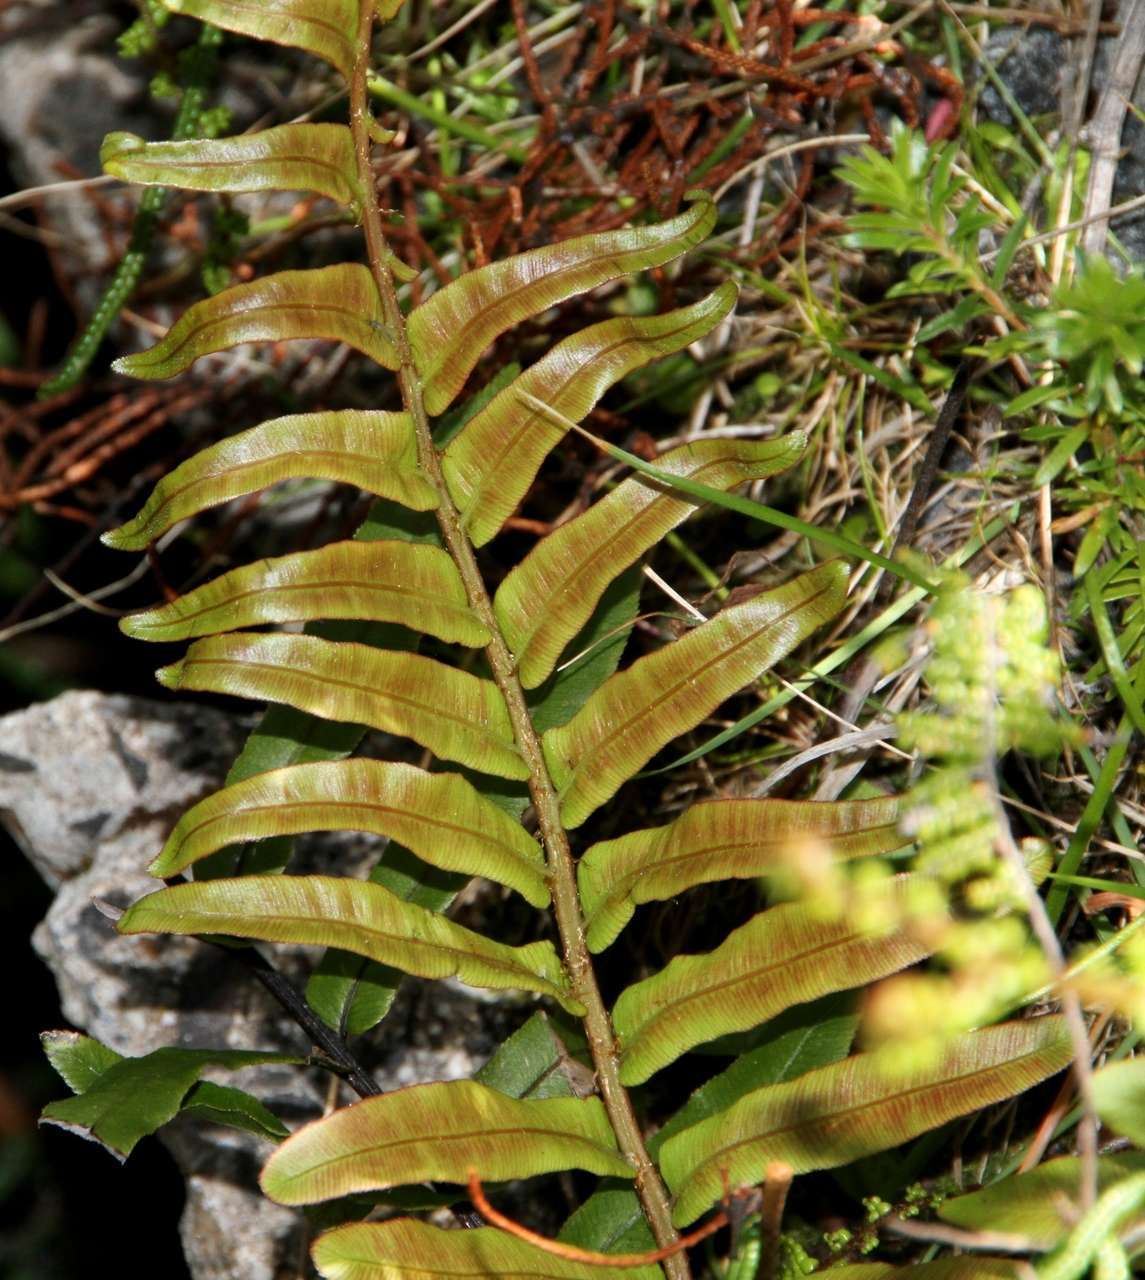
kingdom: Plantae
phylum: Tracheophyta
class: Polypodiopsida
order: Polypodiales
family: Blechnaceae
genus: Parablechnum
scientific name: Parablechnum minus
